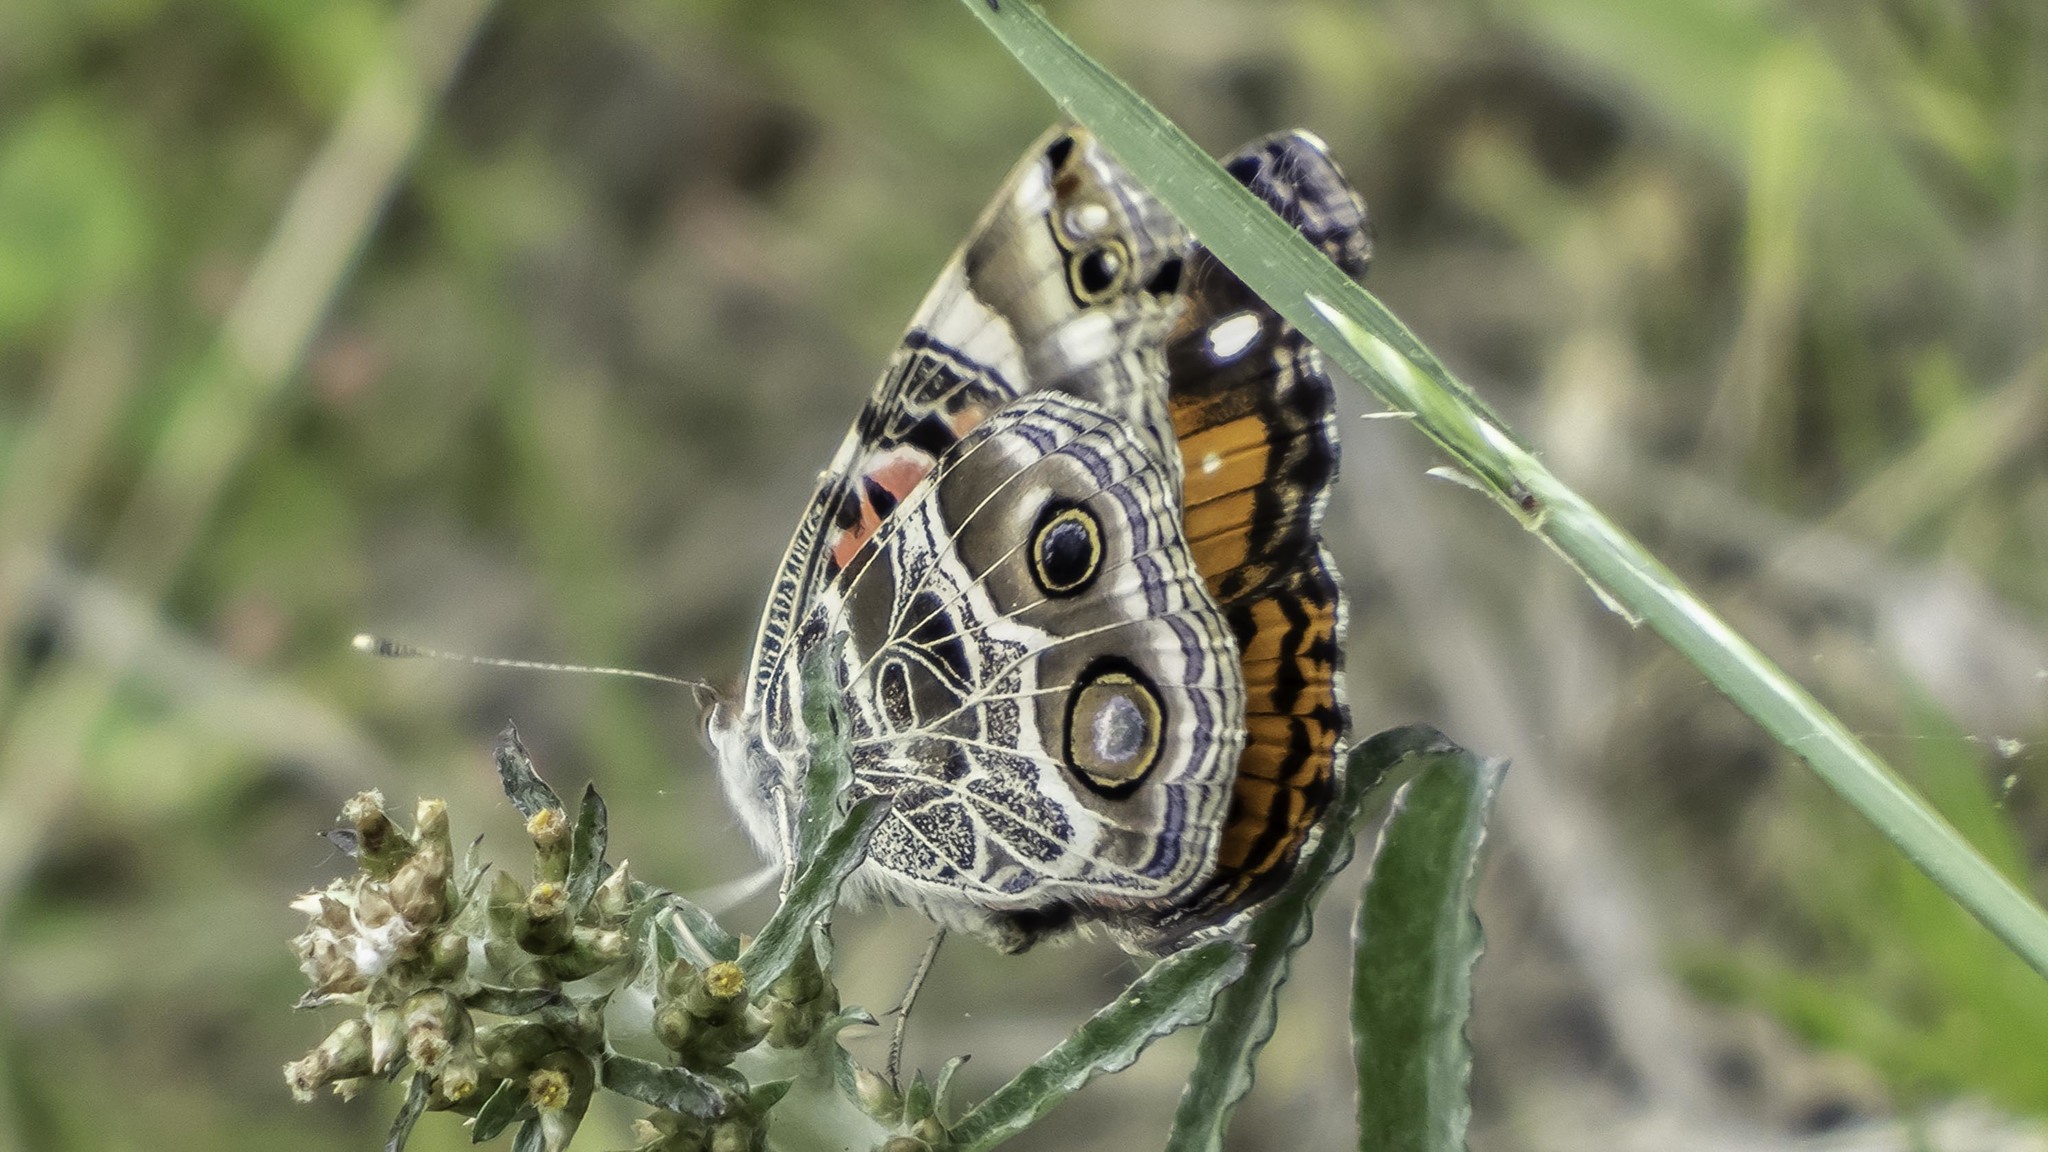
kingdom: Animalia
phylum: Arthropoda
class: Insecta
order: Lepidoptera
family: Nymphalidae
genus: Vanessa
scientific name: Vanessa virginiensis
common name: American lady
